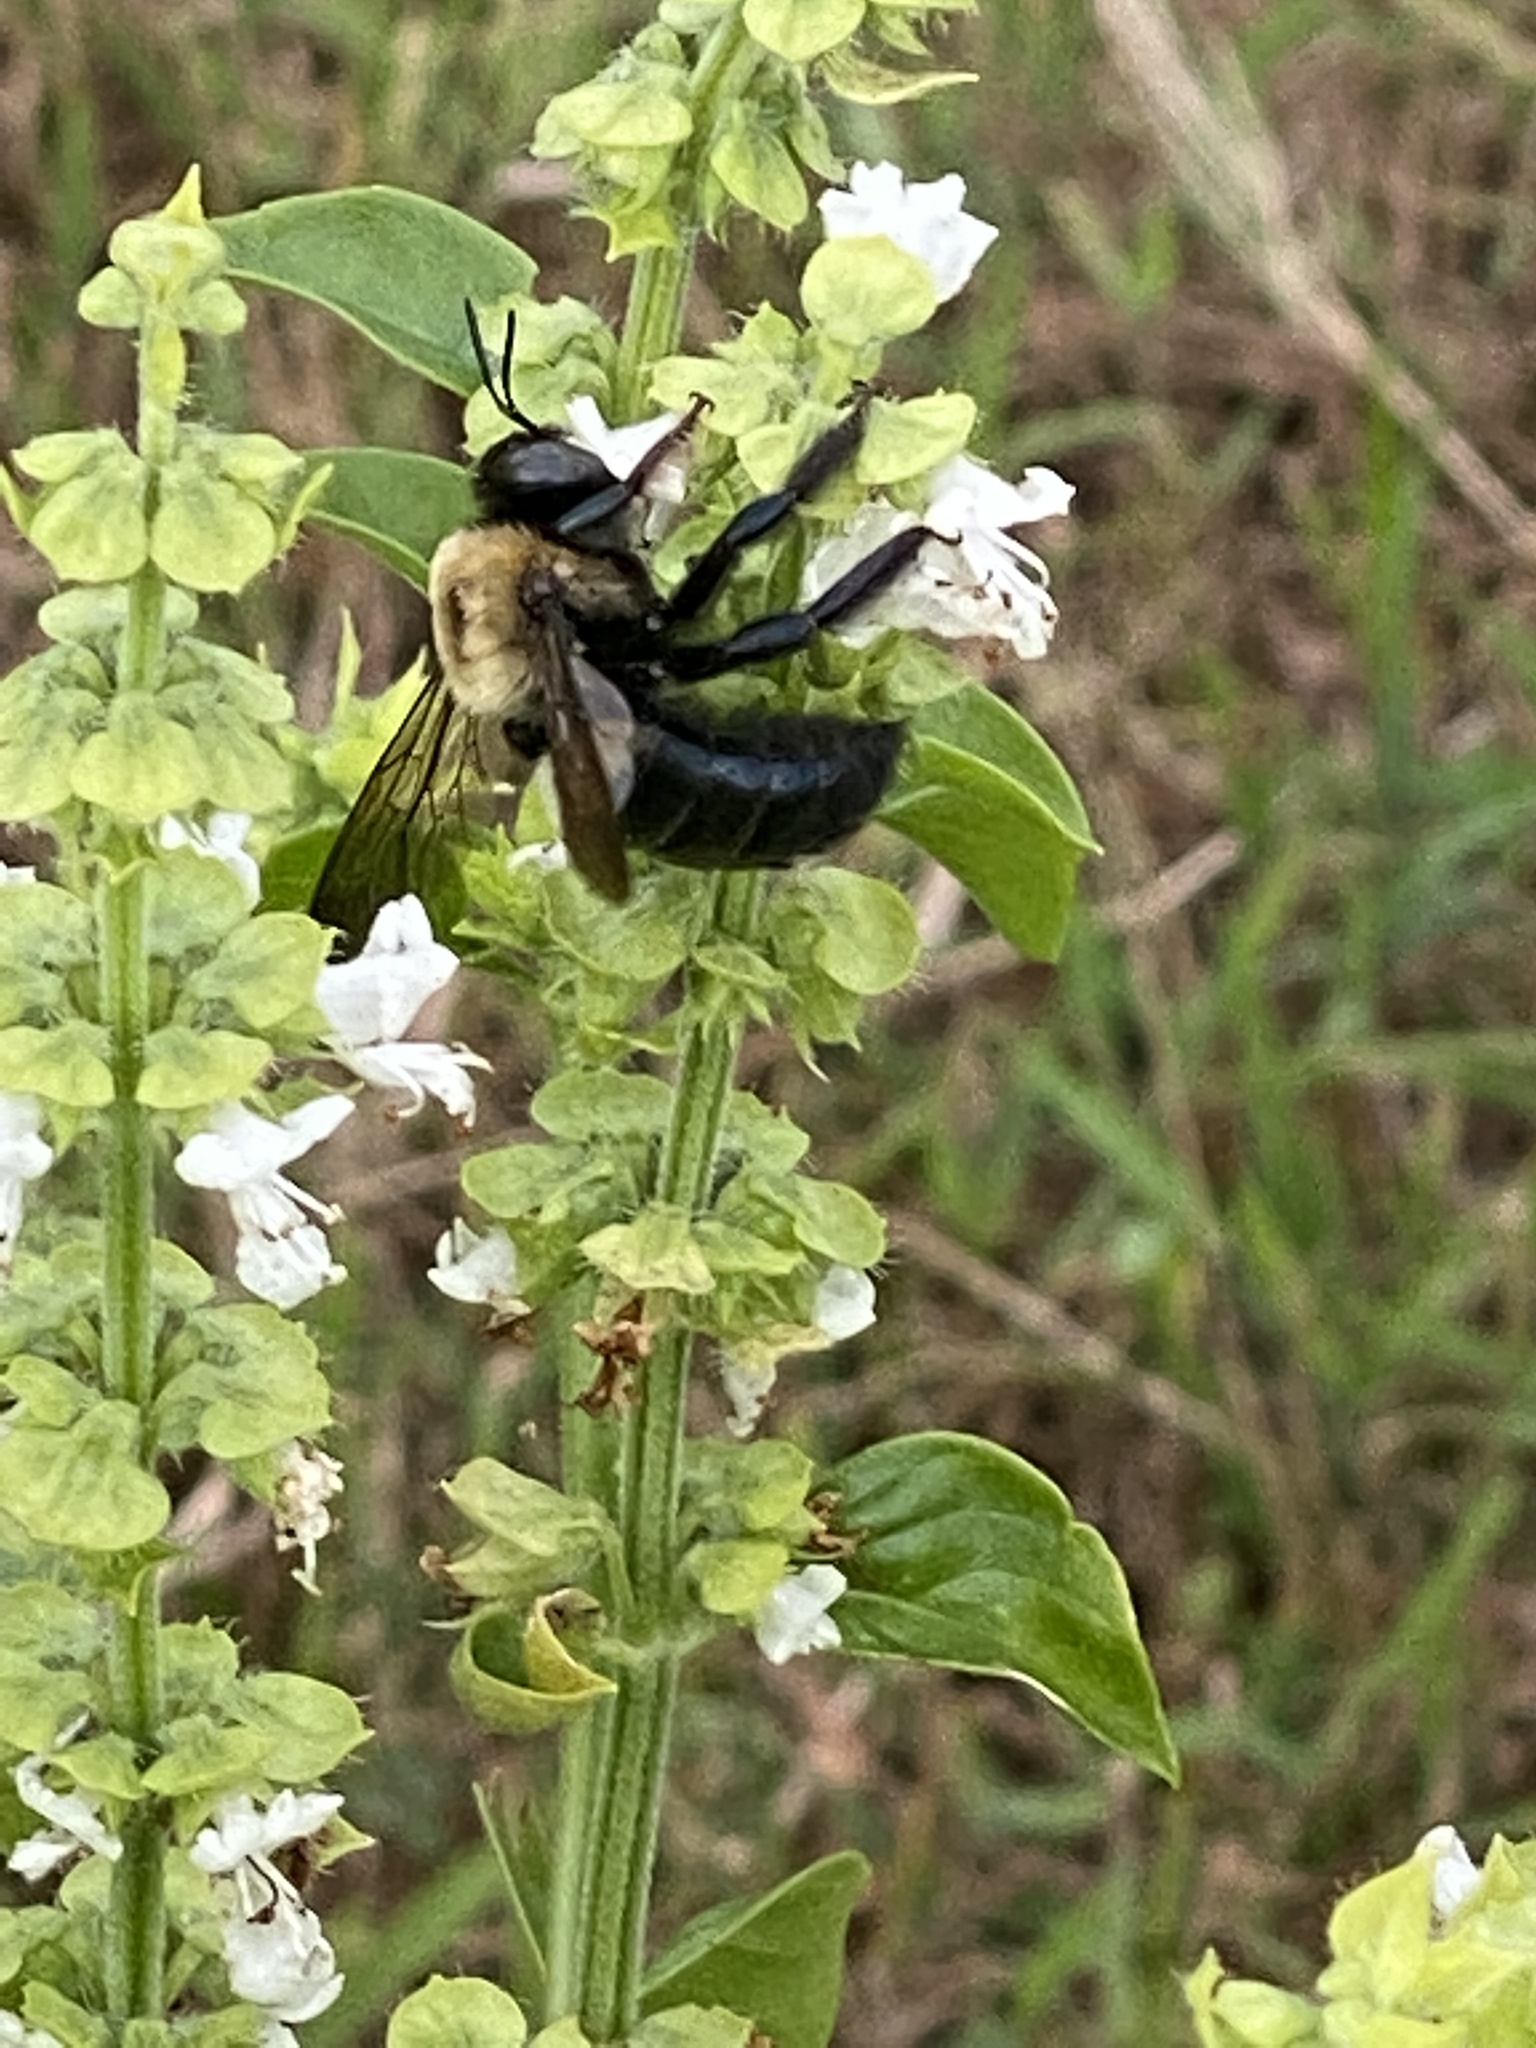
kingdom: Animalia
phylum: Arthropoda
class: Insecta
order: Hymenoptera
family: Apidae
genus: Xylocopa
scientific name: Xylocopa virginica
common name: Carpenter bee
